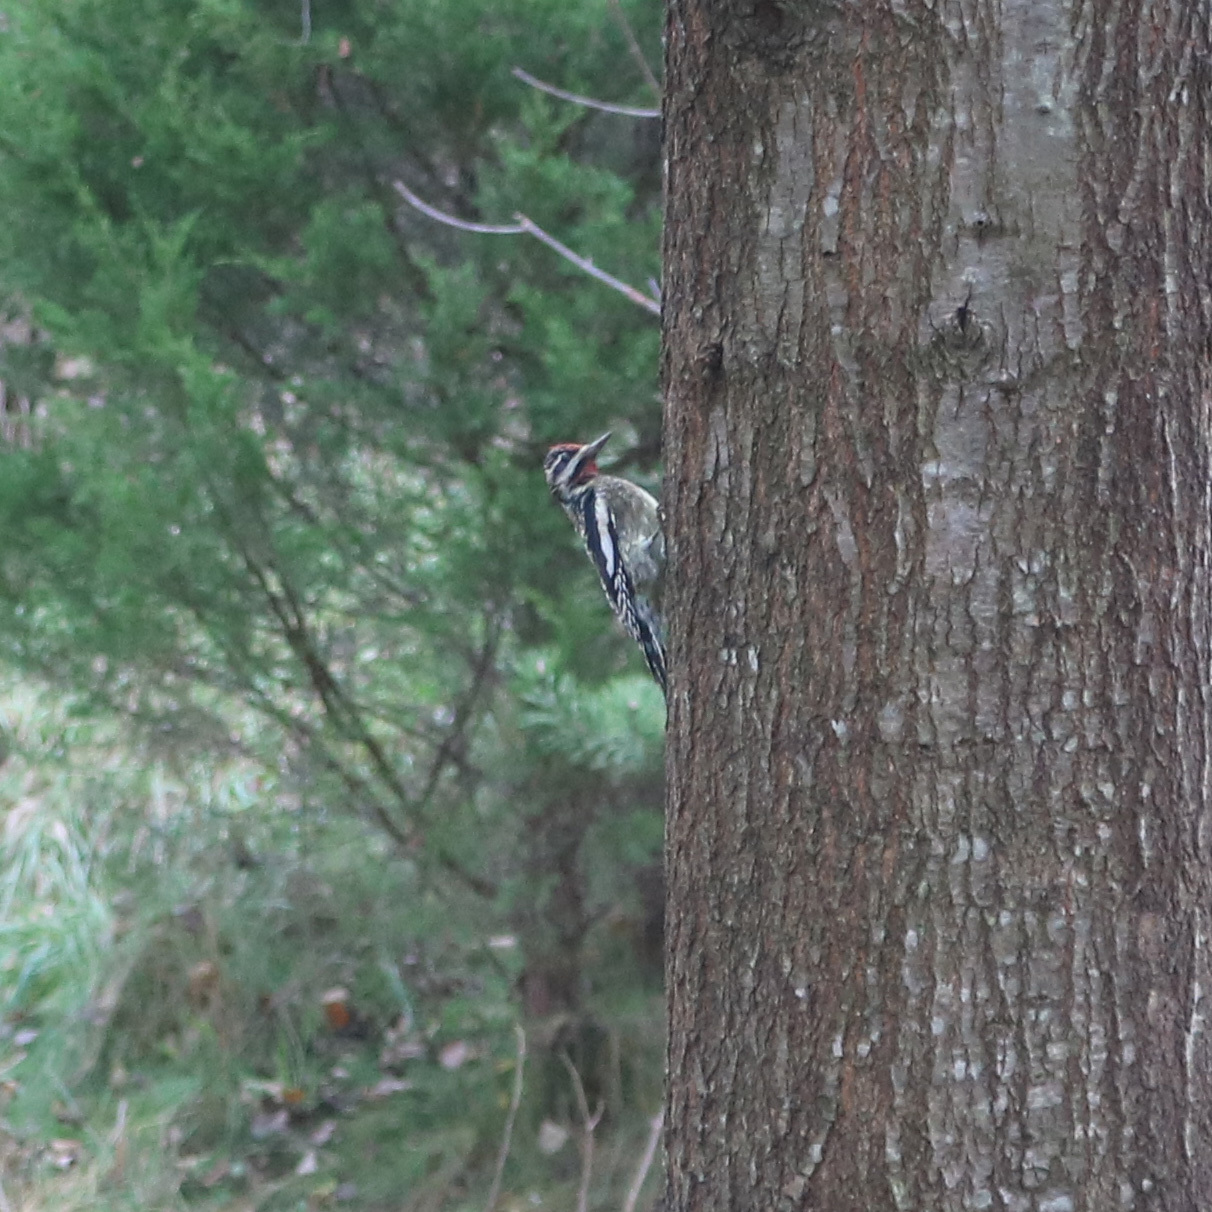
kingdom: Animalia
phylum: Chordata
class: Aves
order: Piciformes
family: Picidae
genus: Sphyrapicus
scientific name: Sphyrapicus varius
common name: Yellow-bellied sapsucker
